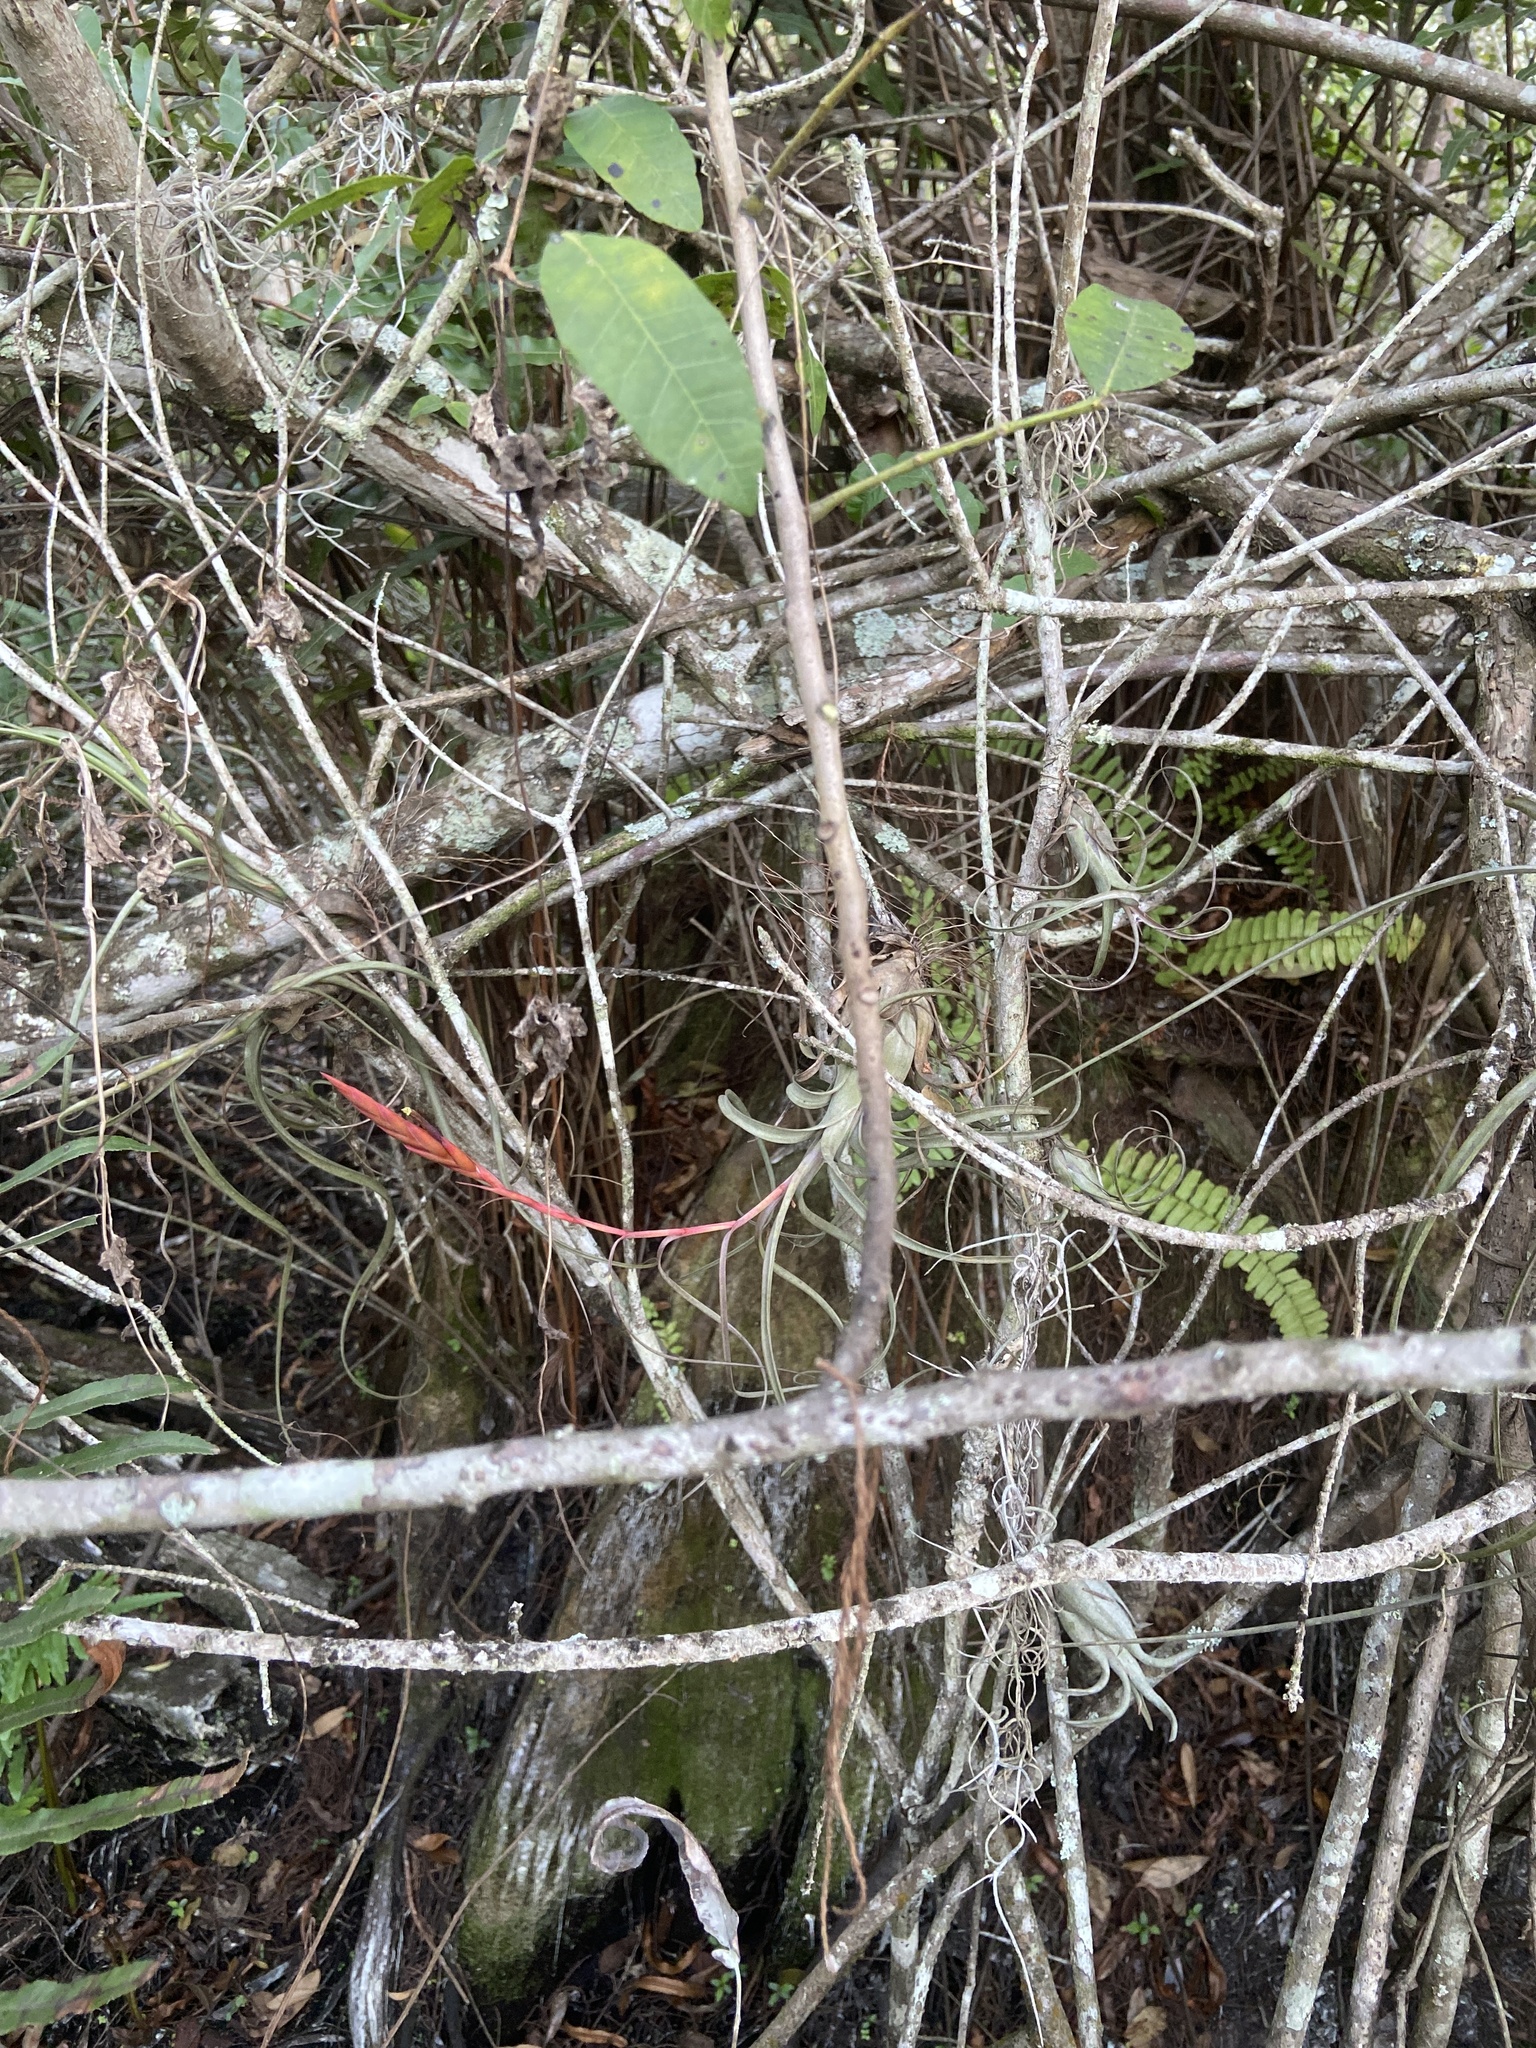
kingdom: Plantae
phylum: Tracheophyta
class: Liliopsida
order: Poales
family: Bromeliaceae
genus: Tillandsia
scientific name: Tillandsia balbisiana
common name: Northern needleleaf
